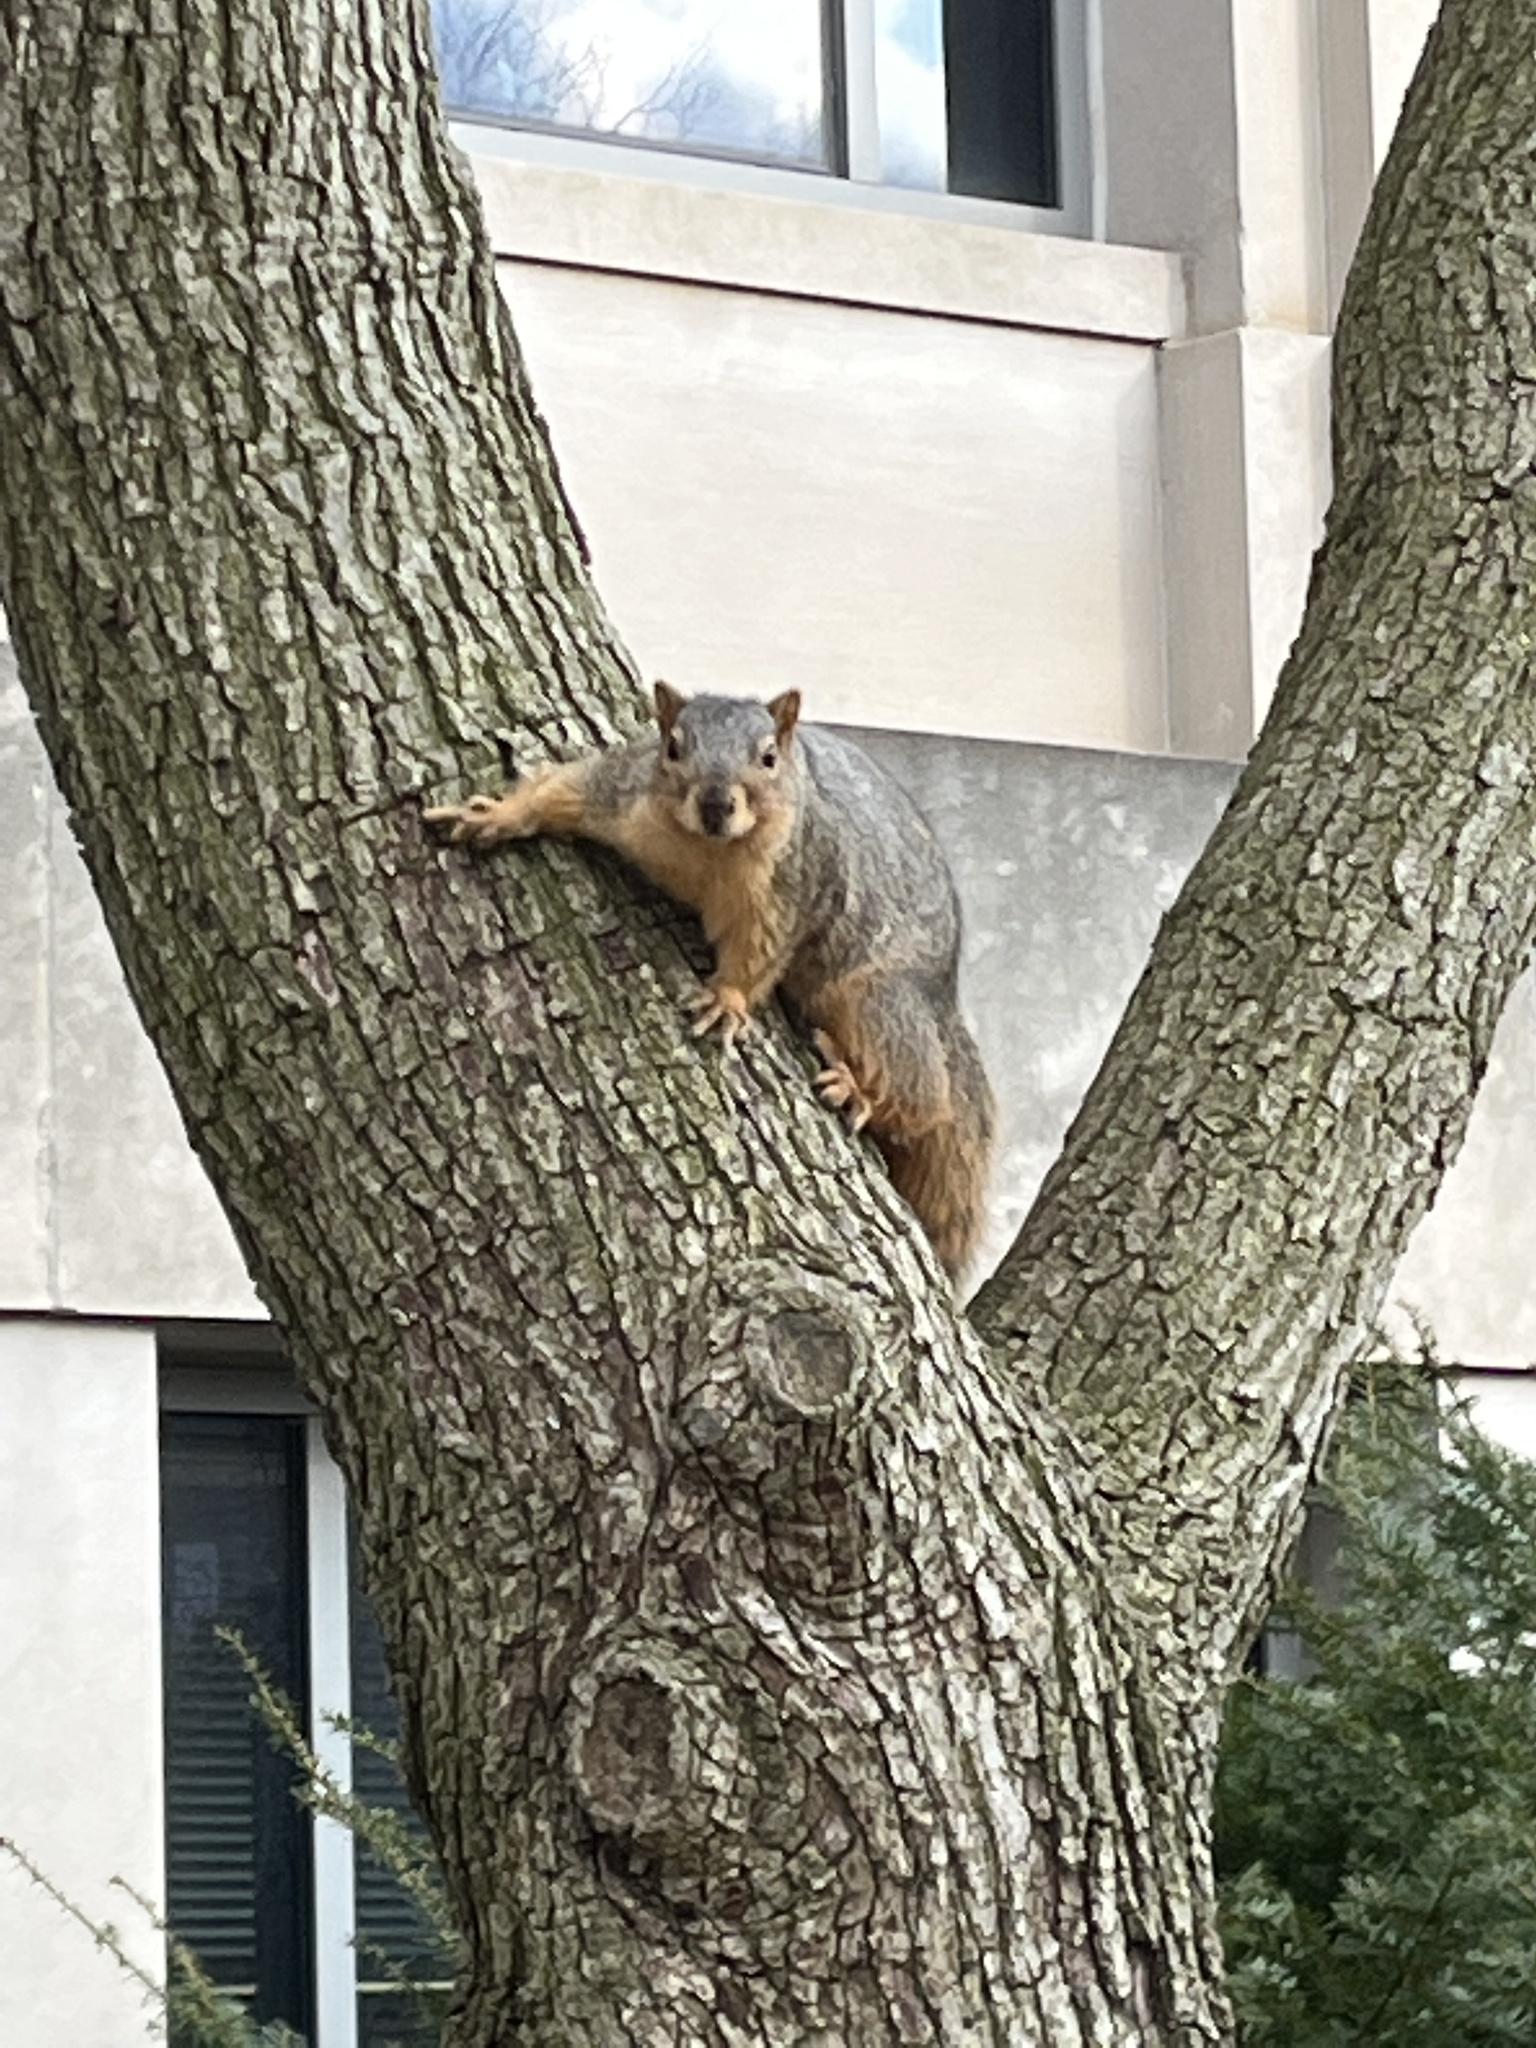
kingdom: Animalia
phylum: Chordata
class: Mammalia
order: Rodentia
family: Sciuridae
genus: Sciurus
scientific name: Sciurus niger
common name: Fox squirrel
